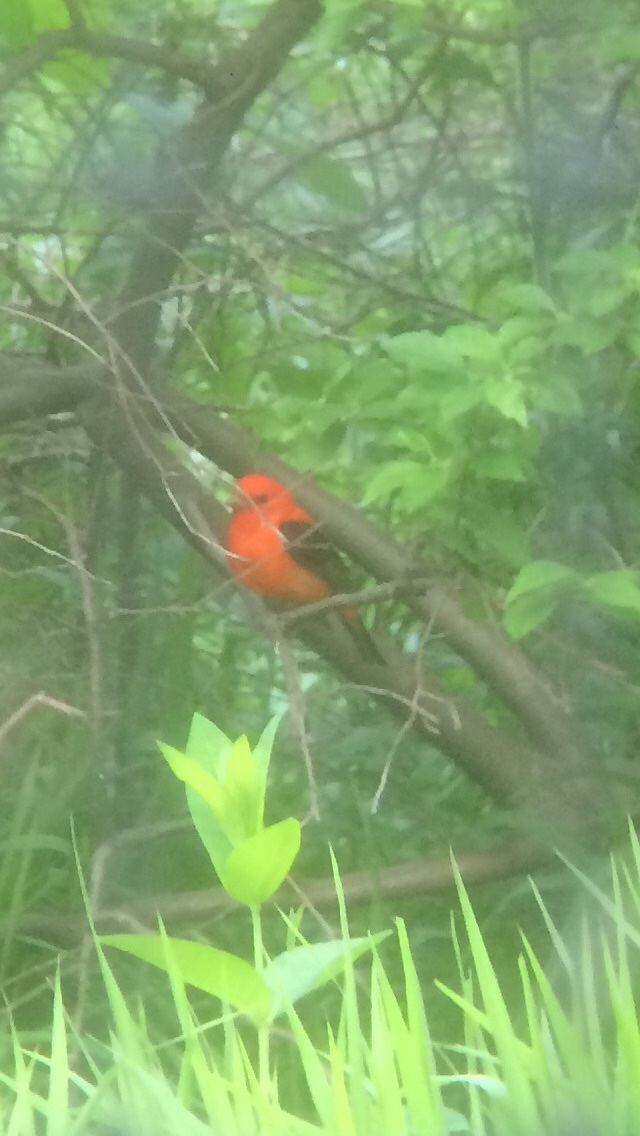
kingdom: Animalia
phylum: Chordata
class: Aves
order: Passeriformes
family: Cardinalidae
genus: Piranga
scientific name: Piranga olivacea
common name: Scarlet tanager
